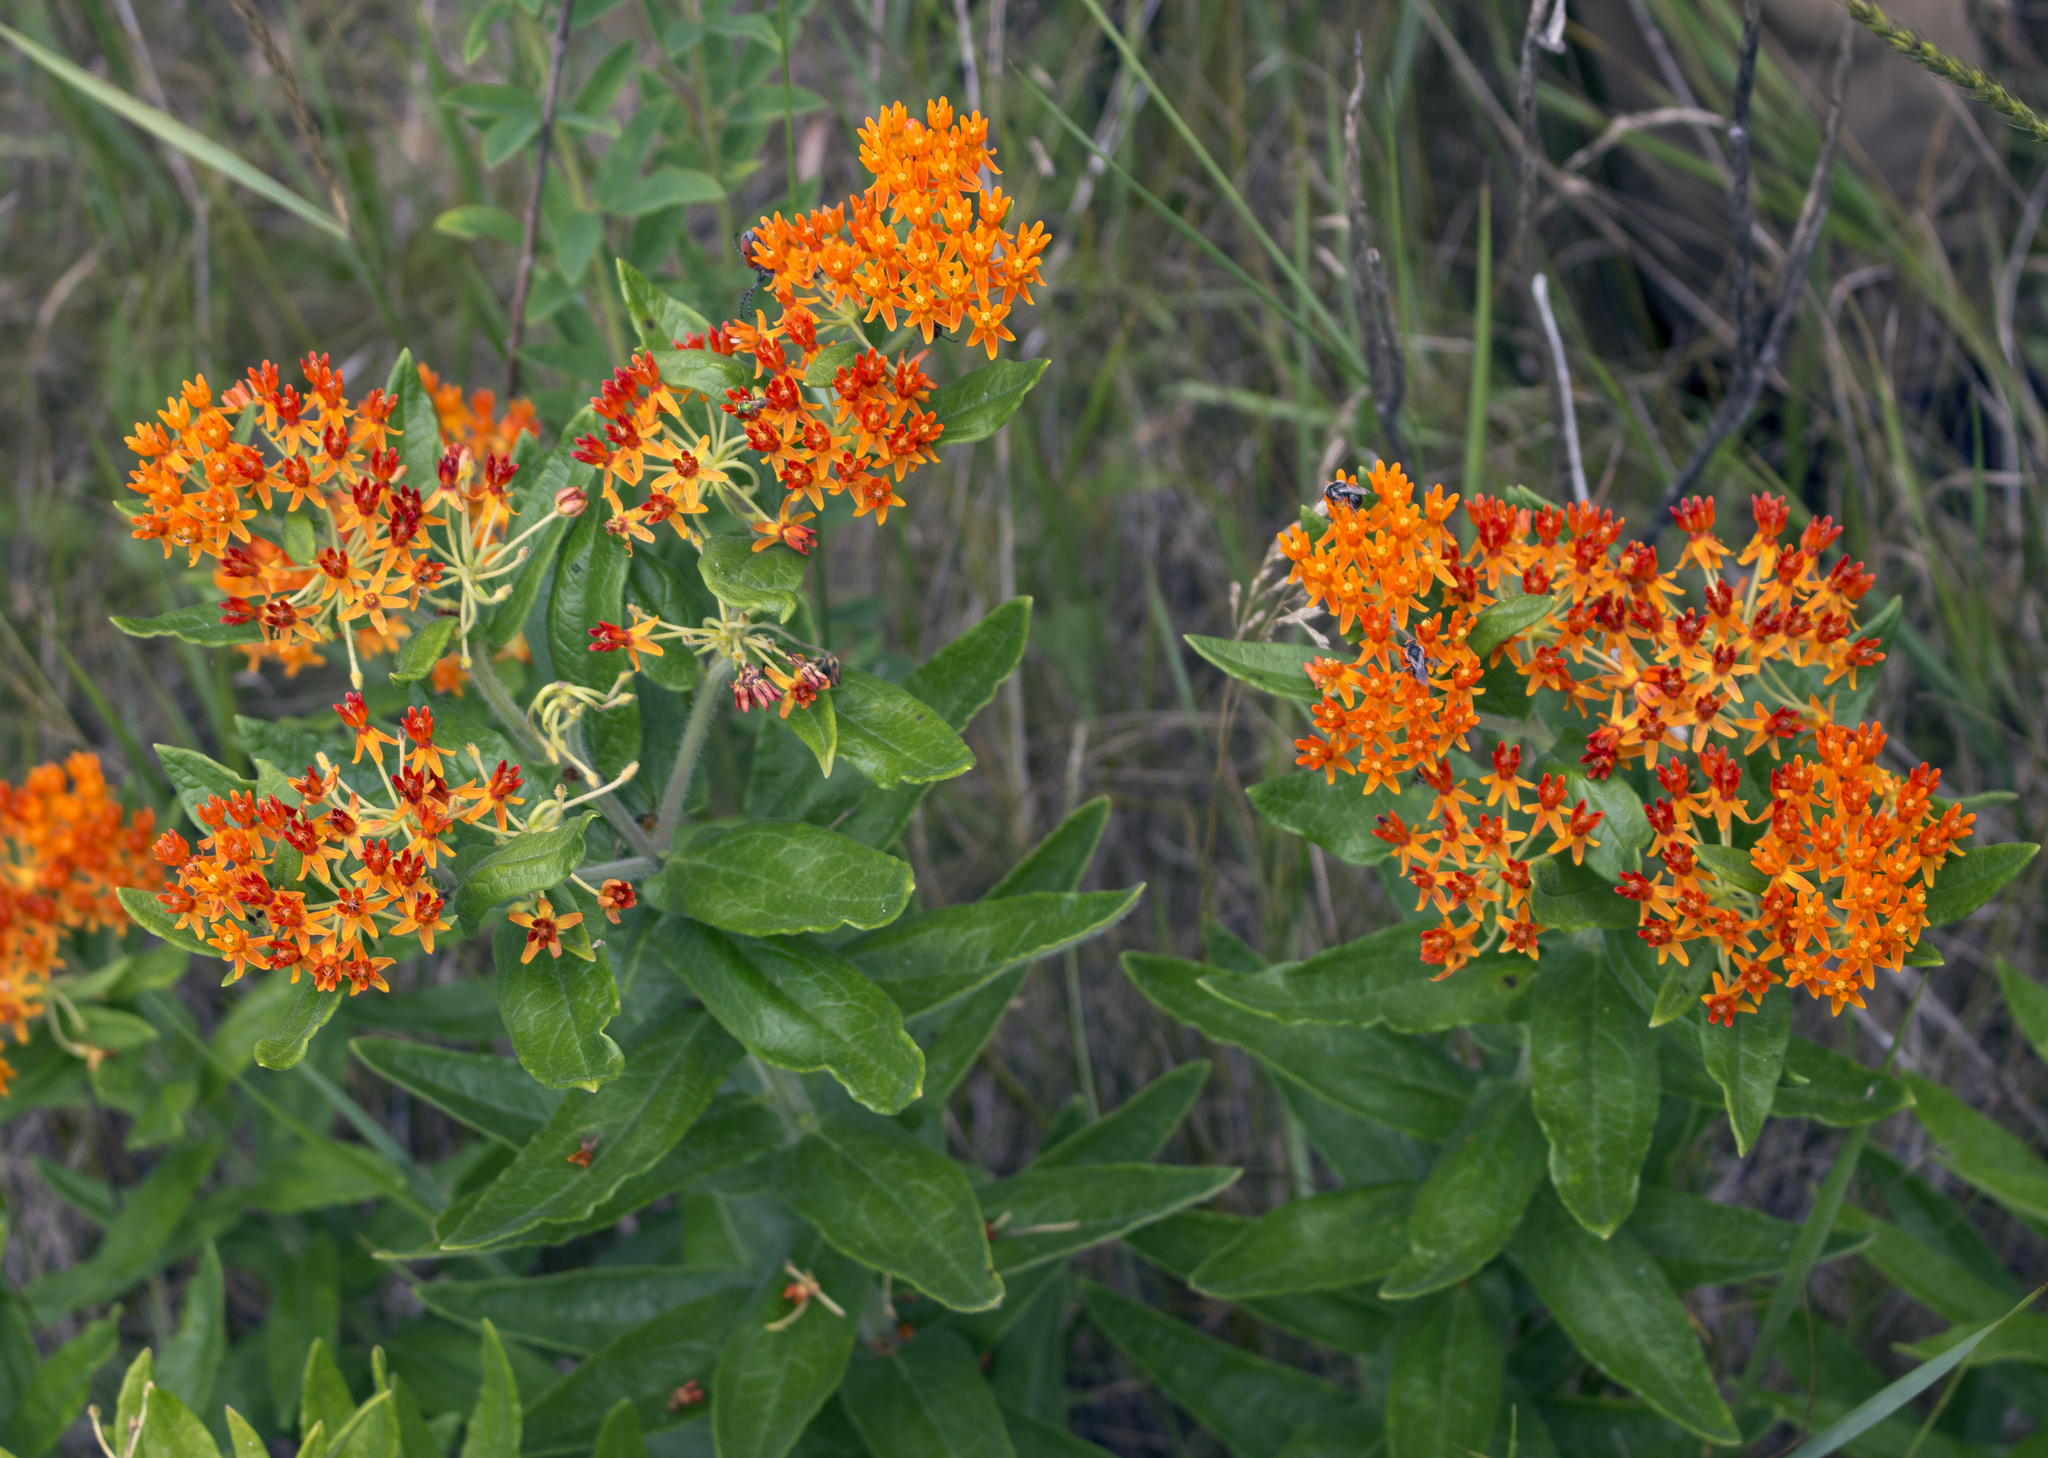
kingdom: Plantae
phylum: Tracheophyta
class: Magnoliopsida
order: Gentianales
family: Apocynaceae
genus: Asclepias
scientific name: Asclepias tuberosa
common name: Butterfly milkweed
